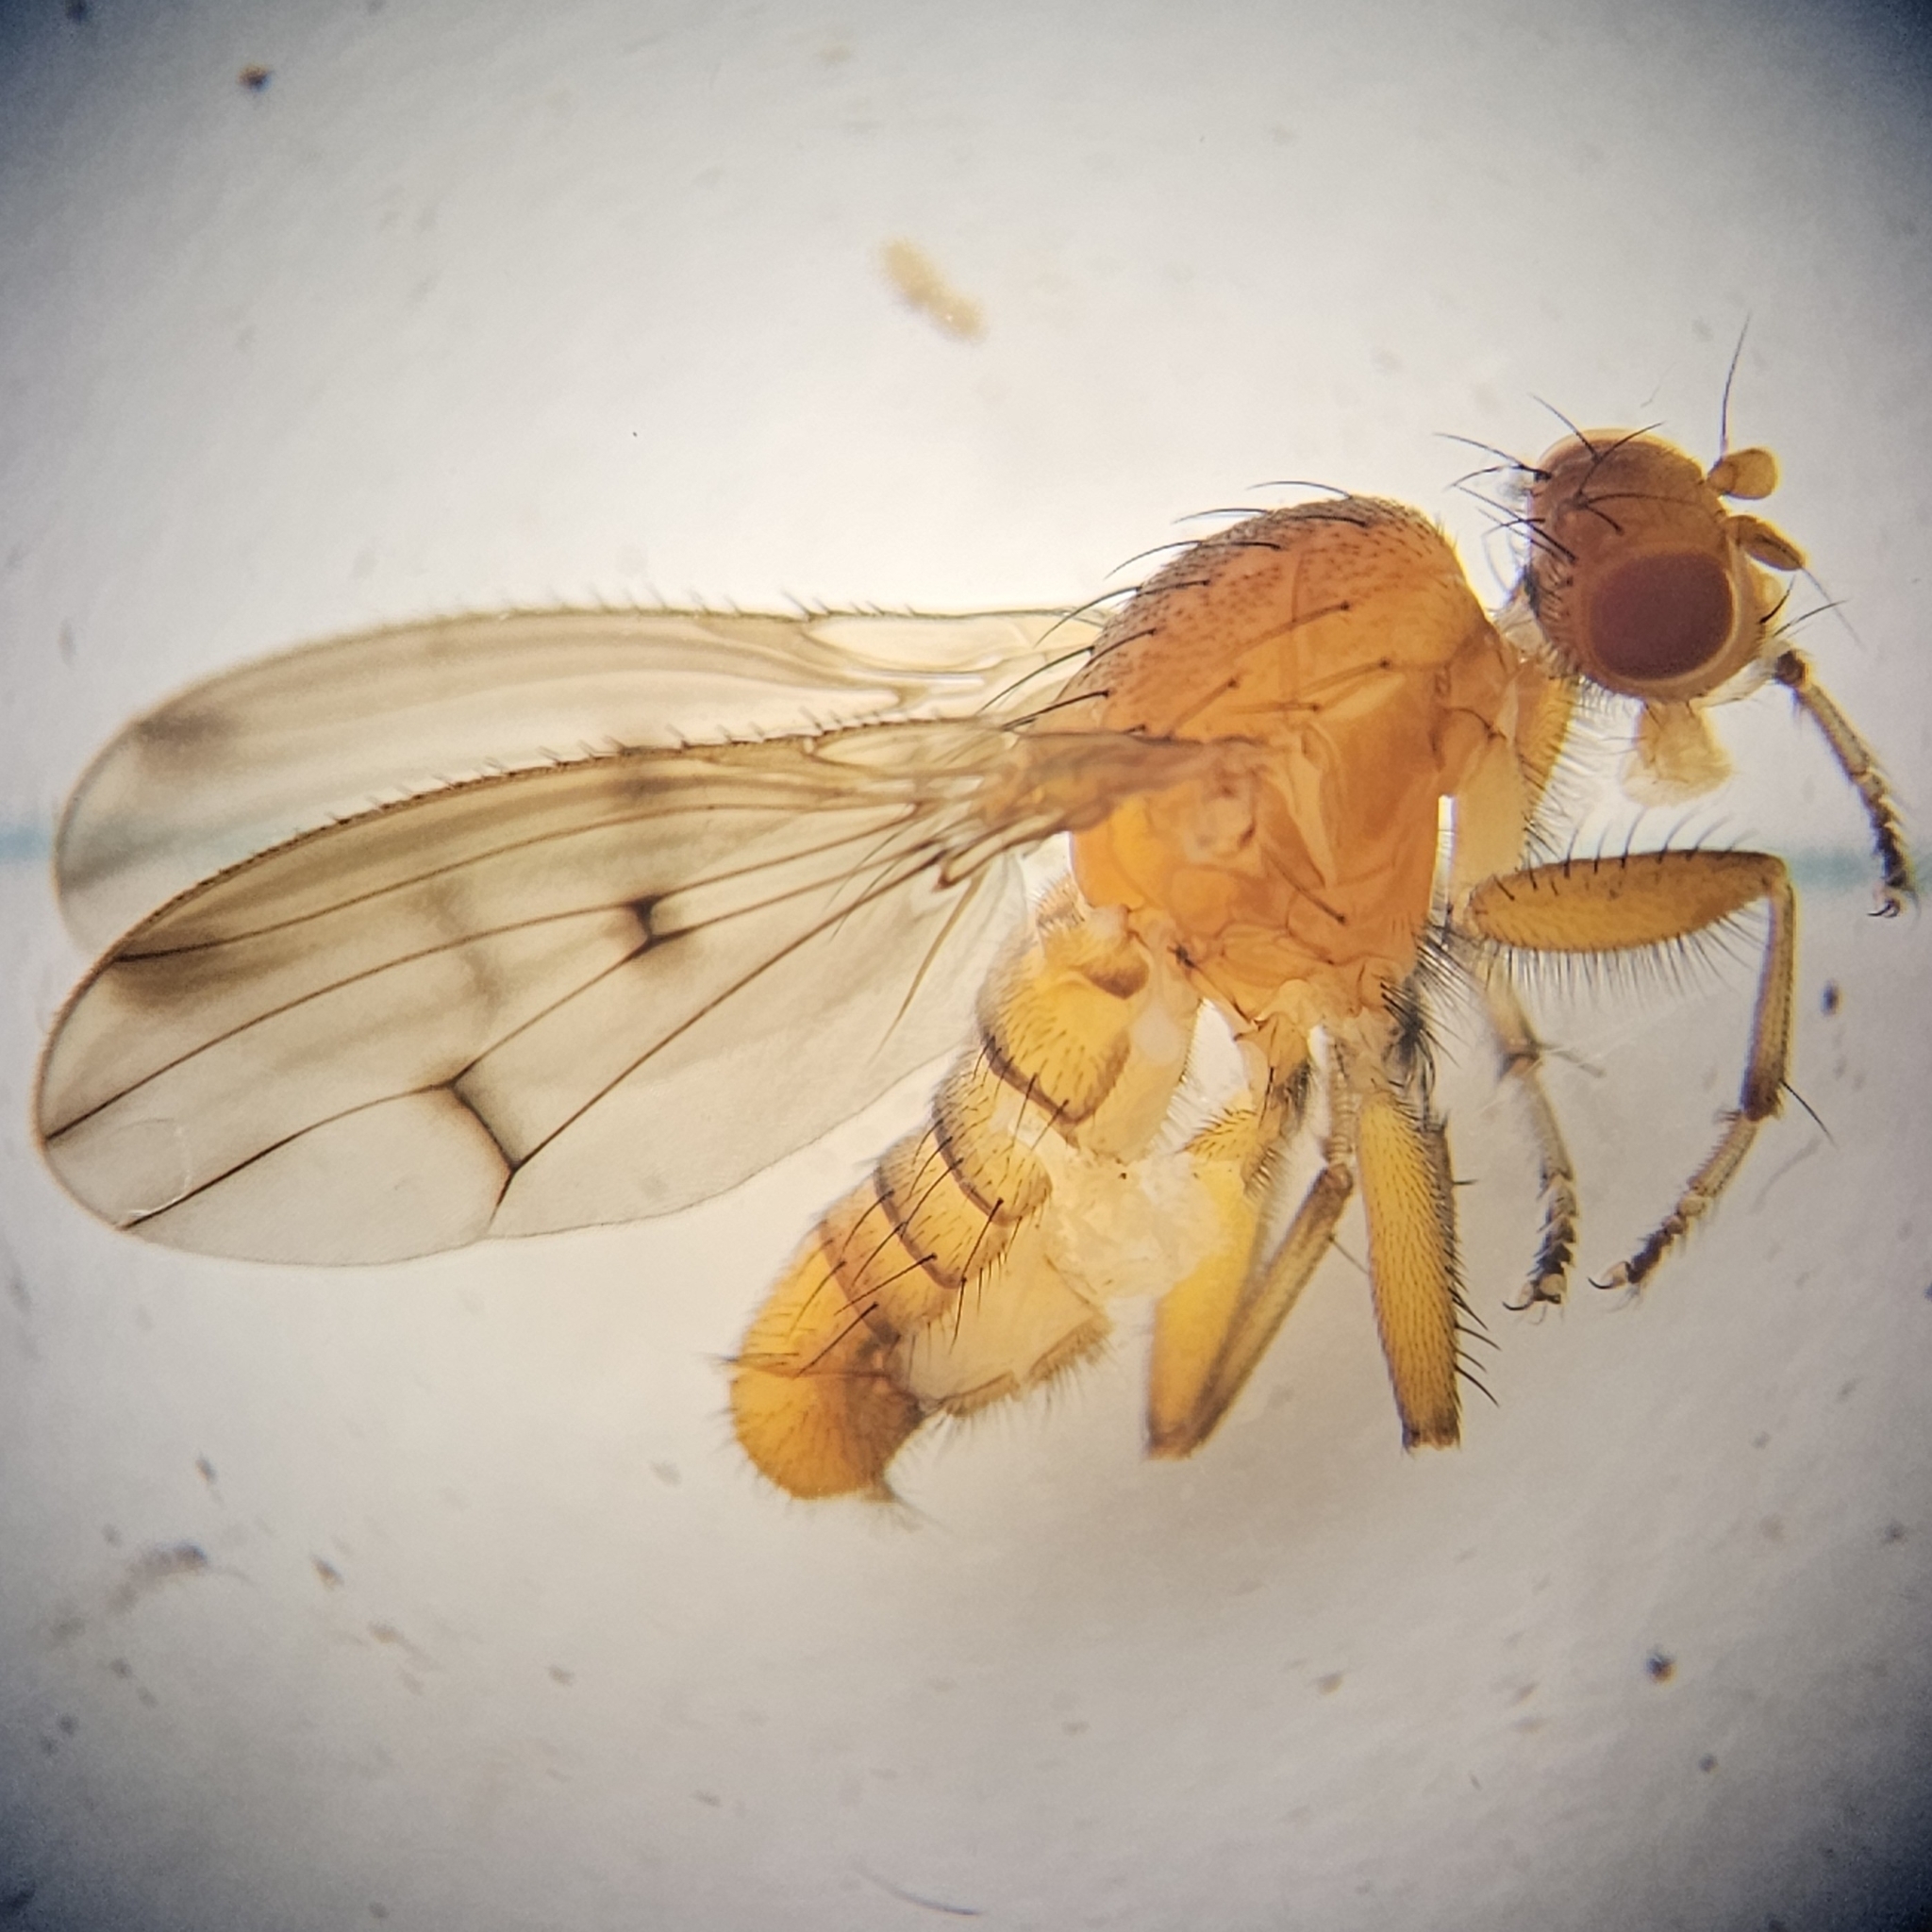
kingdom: Animalia
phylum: Arthropoda
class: Insecta
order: Diptera
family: Heleomyzidae
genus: Suillia
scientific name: Suillia apicalis
